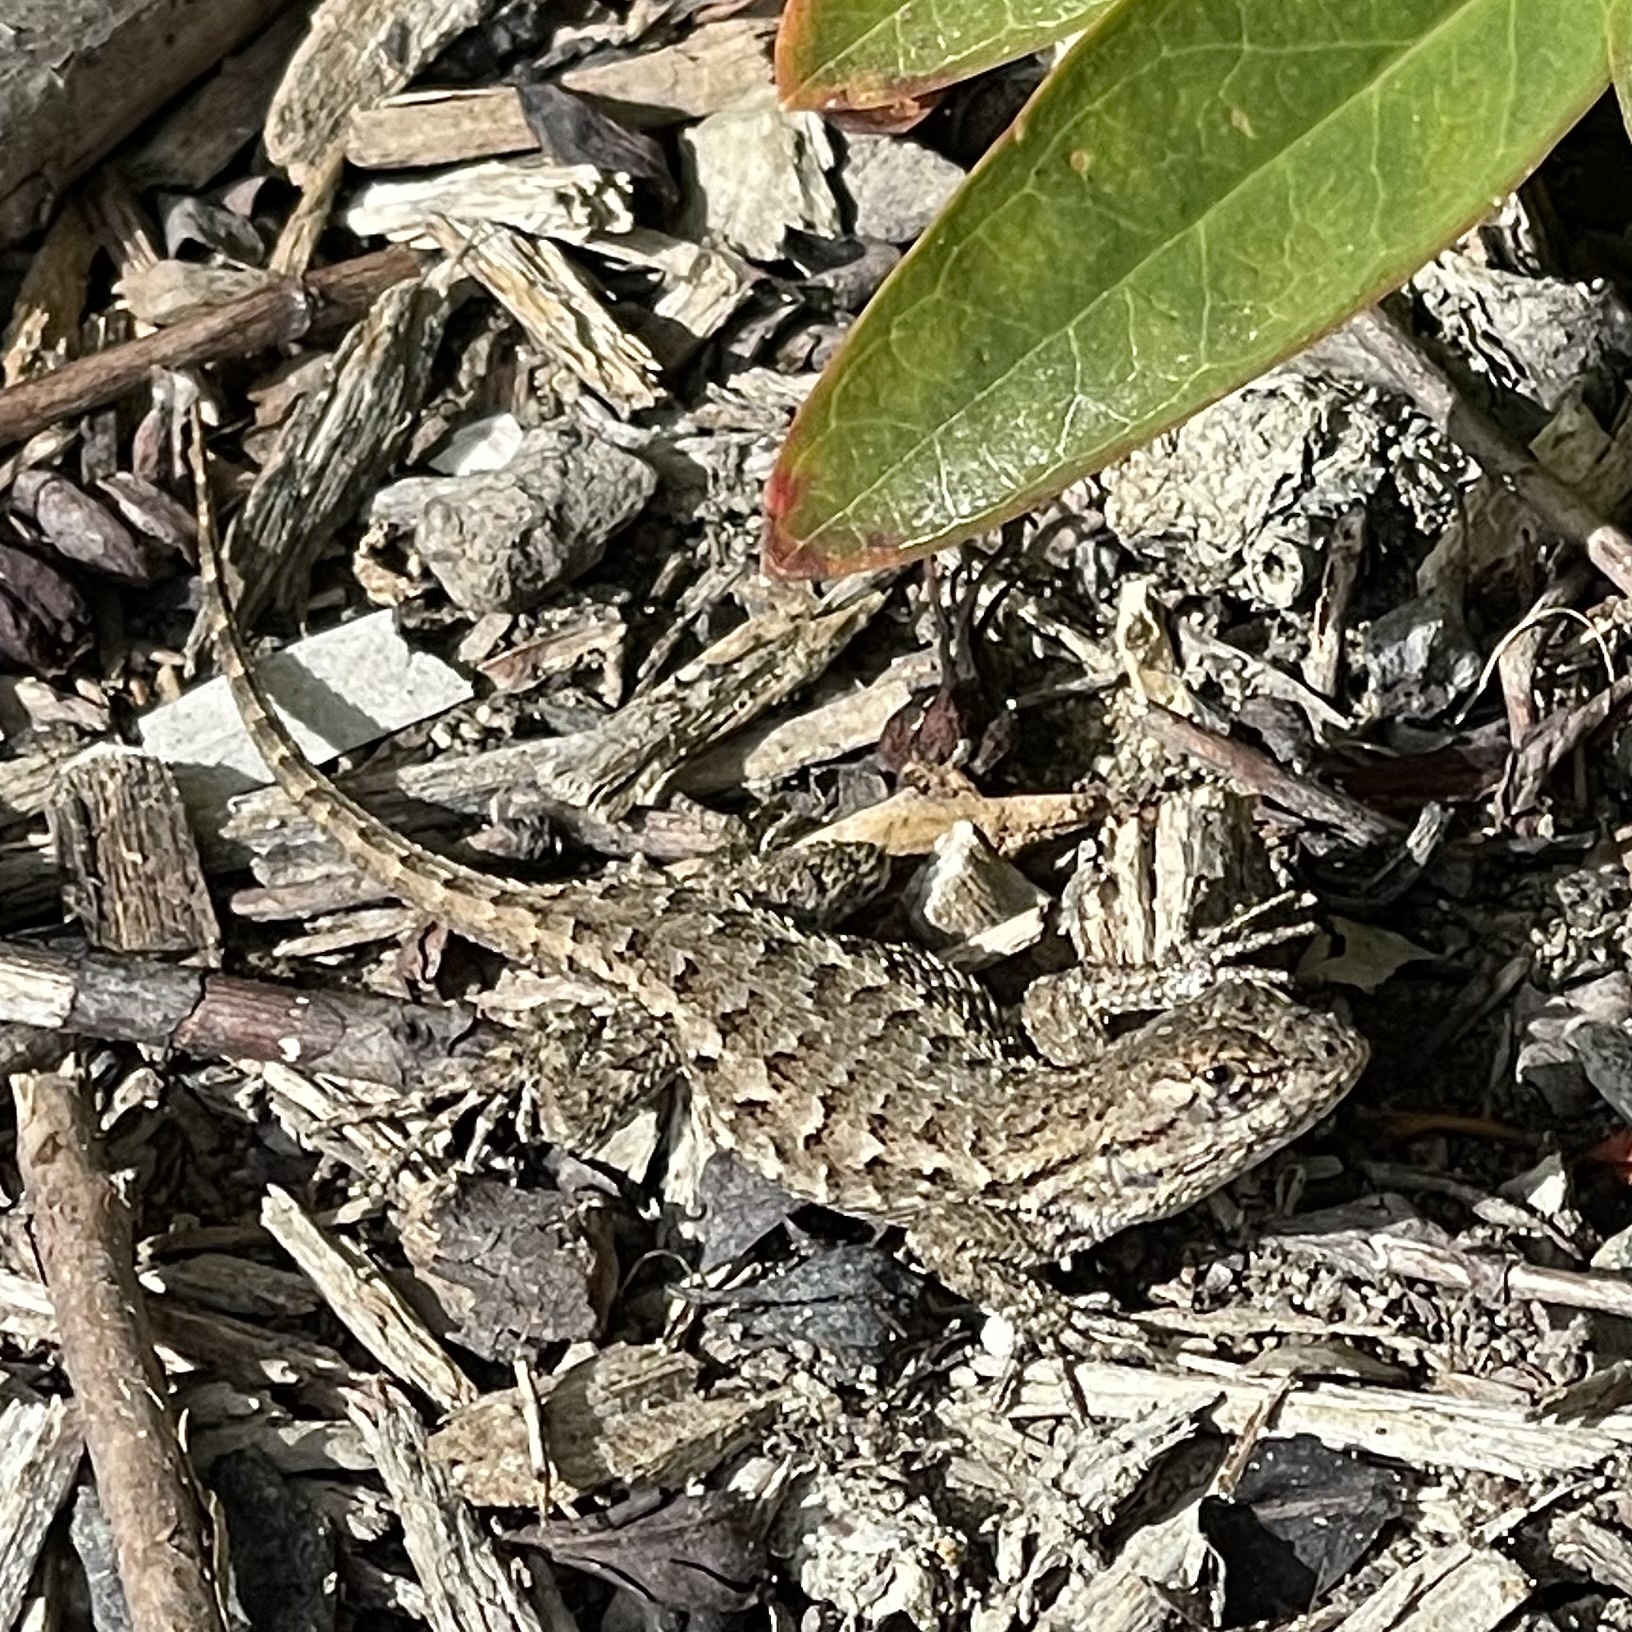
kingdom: Animalia
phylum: Chordata
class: Squamata
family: Phrynosomatidae
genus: Sceloporus
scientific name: Sceloporus occidentalis
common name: Western fence lizard
